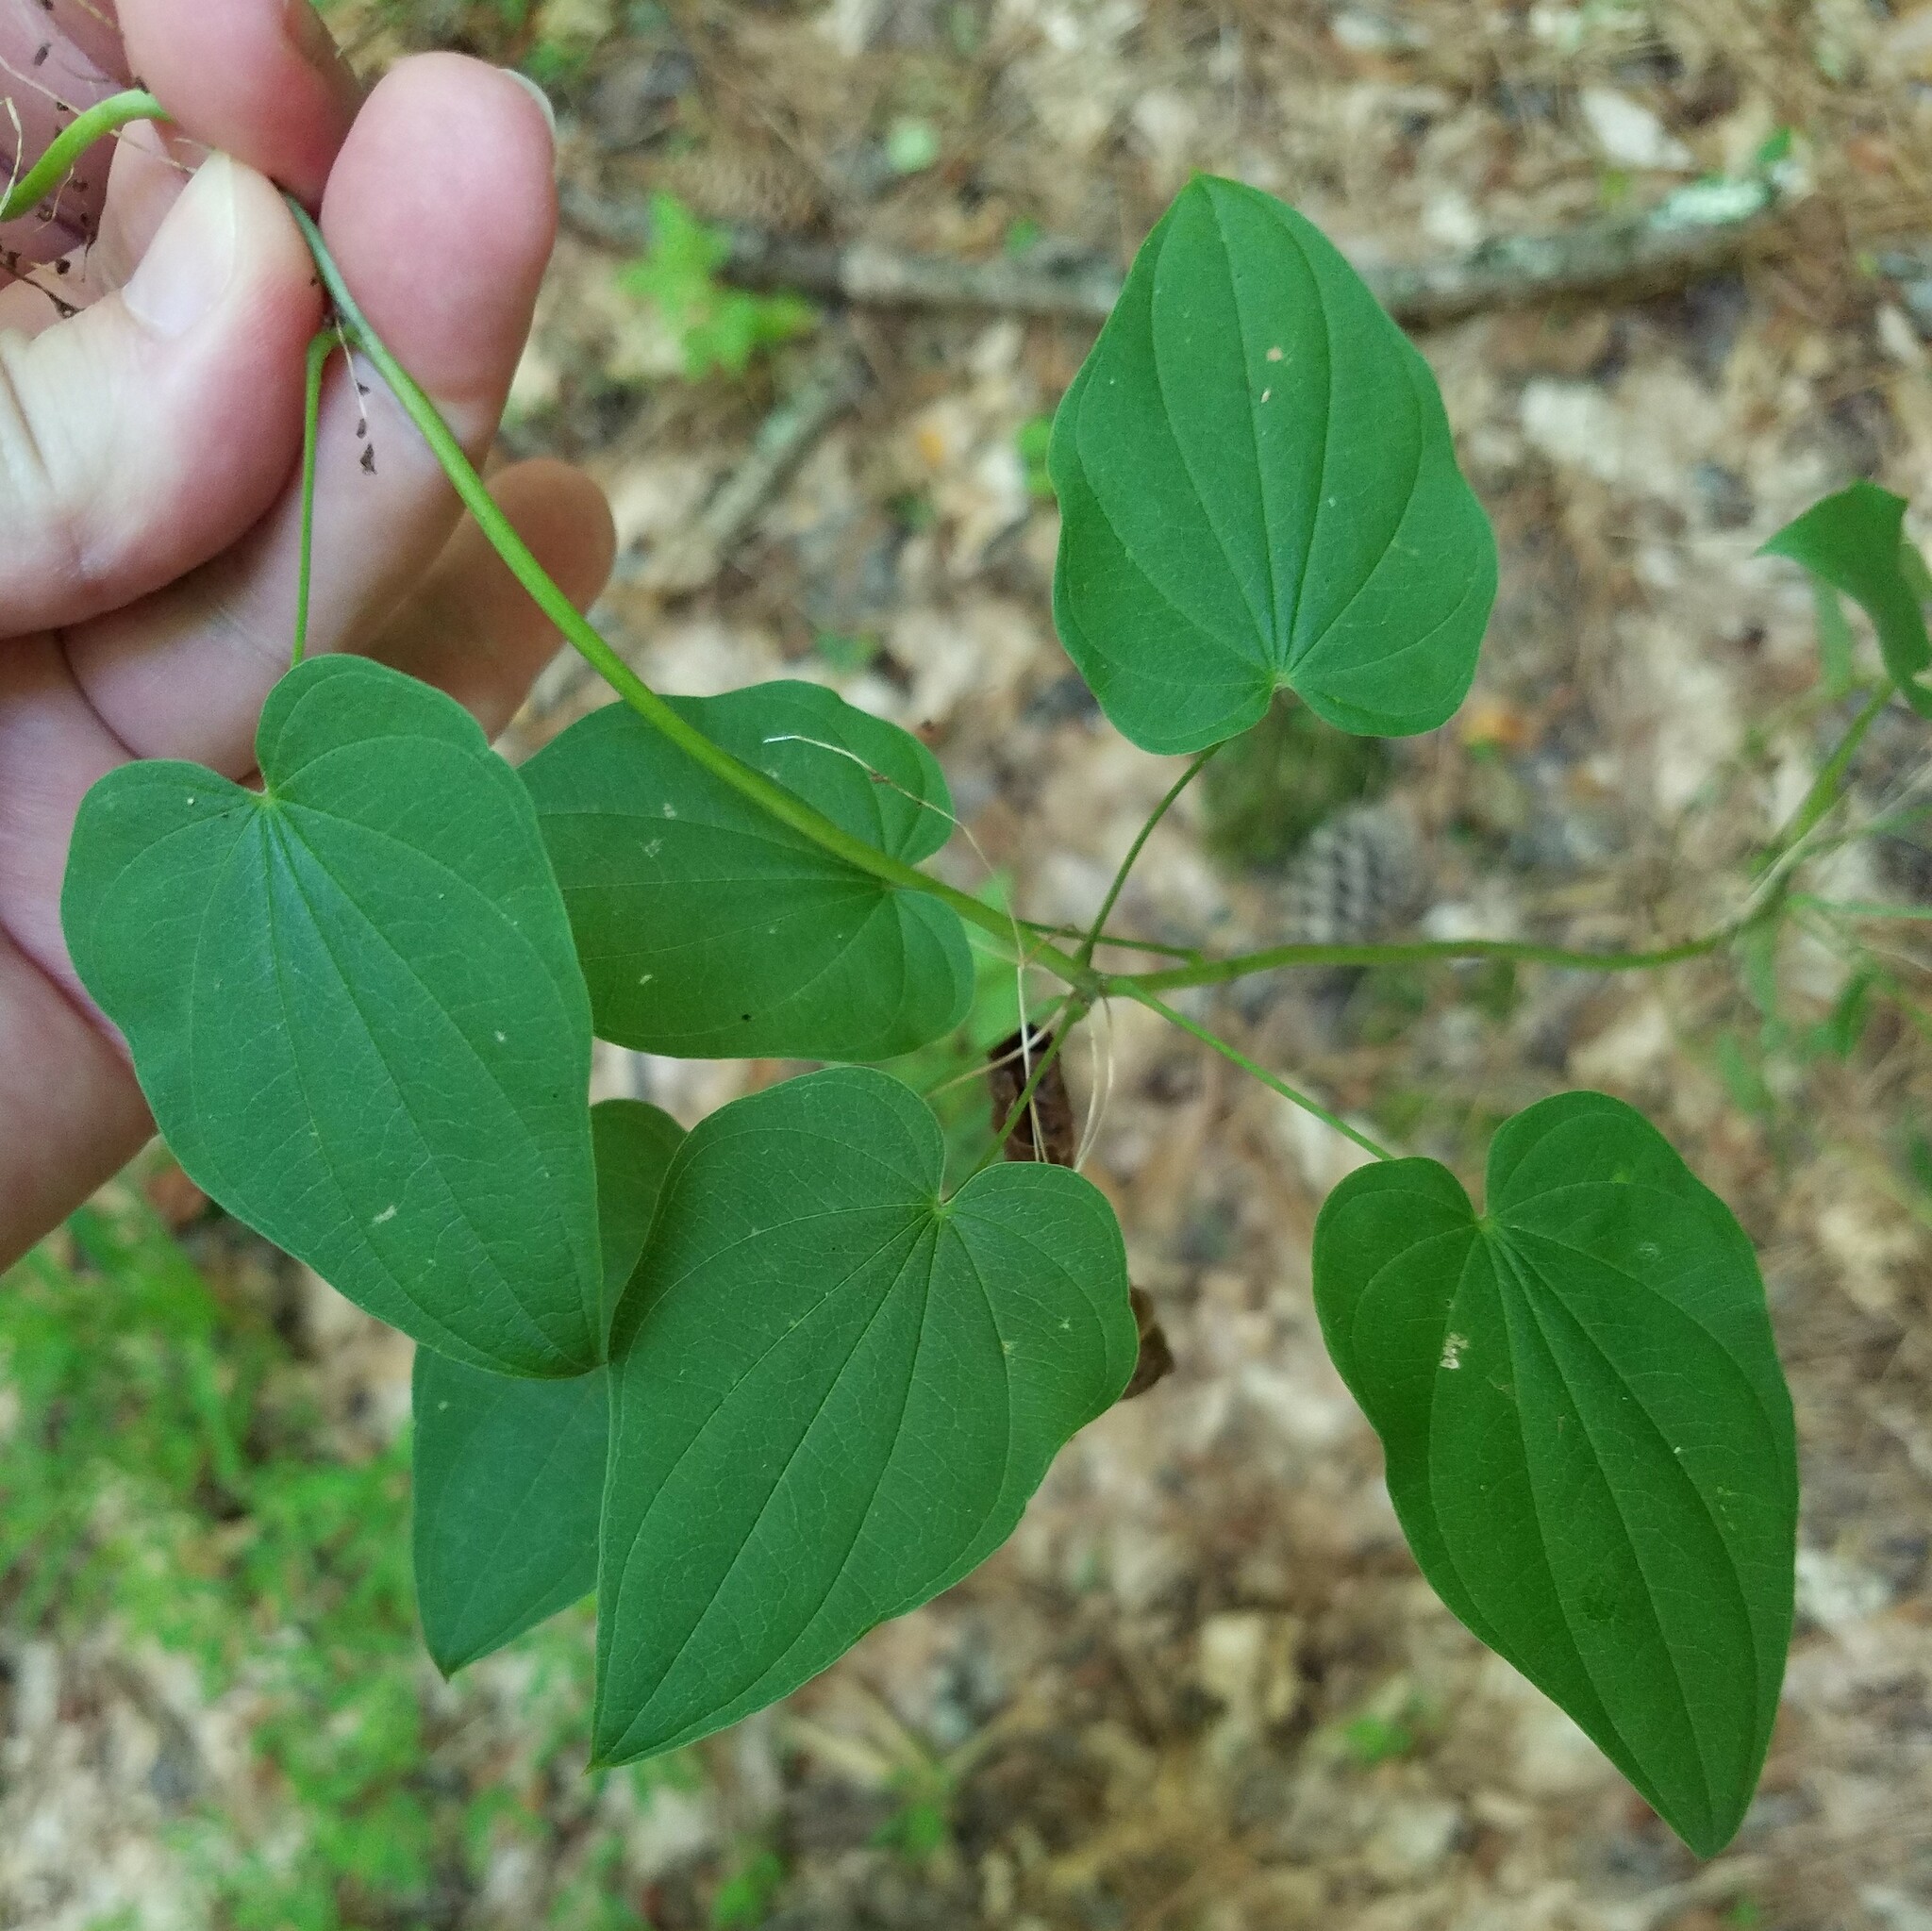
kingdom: Plantae
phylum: Tracheophyta
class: Liliopsida
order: Dioscoreales
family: Dioscoreaceae
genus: Dioscorea
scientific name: Dioscorea villosa
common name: Wild yam
